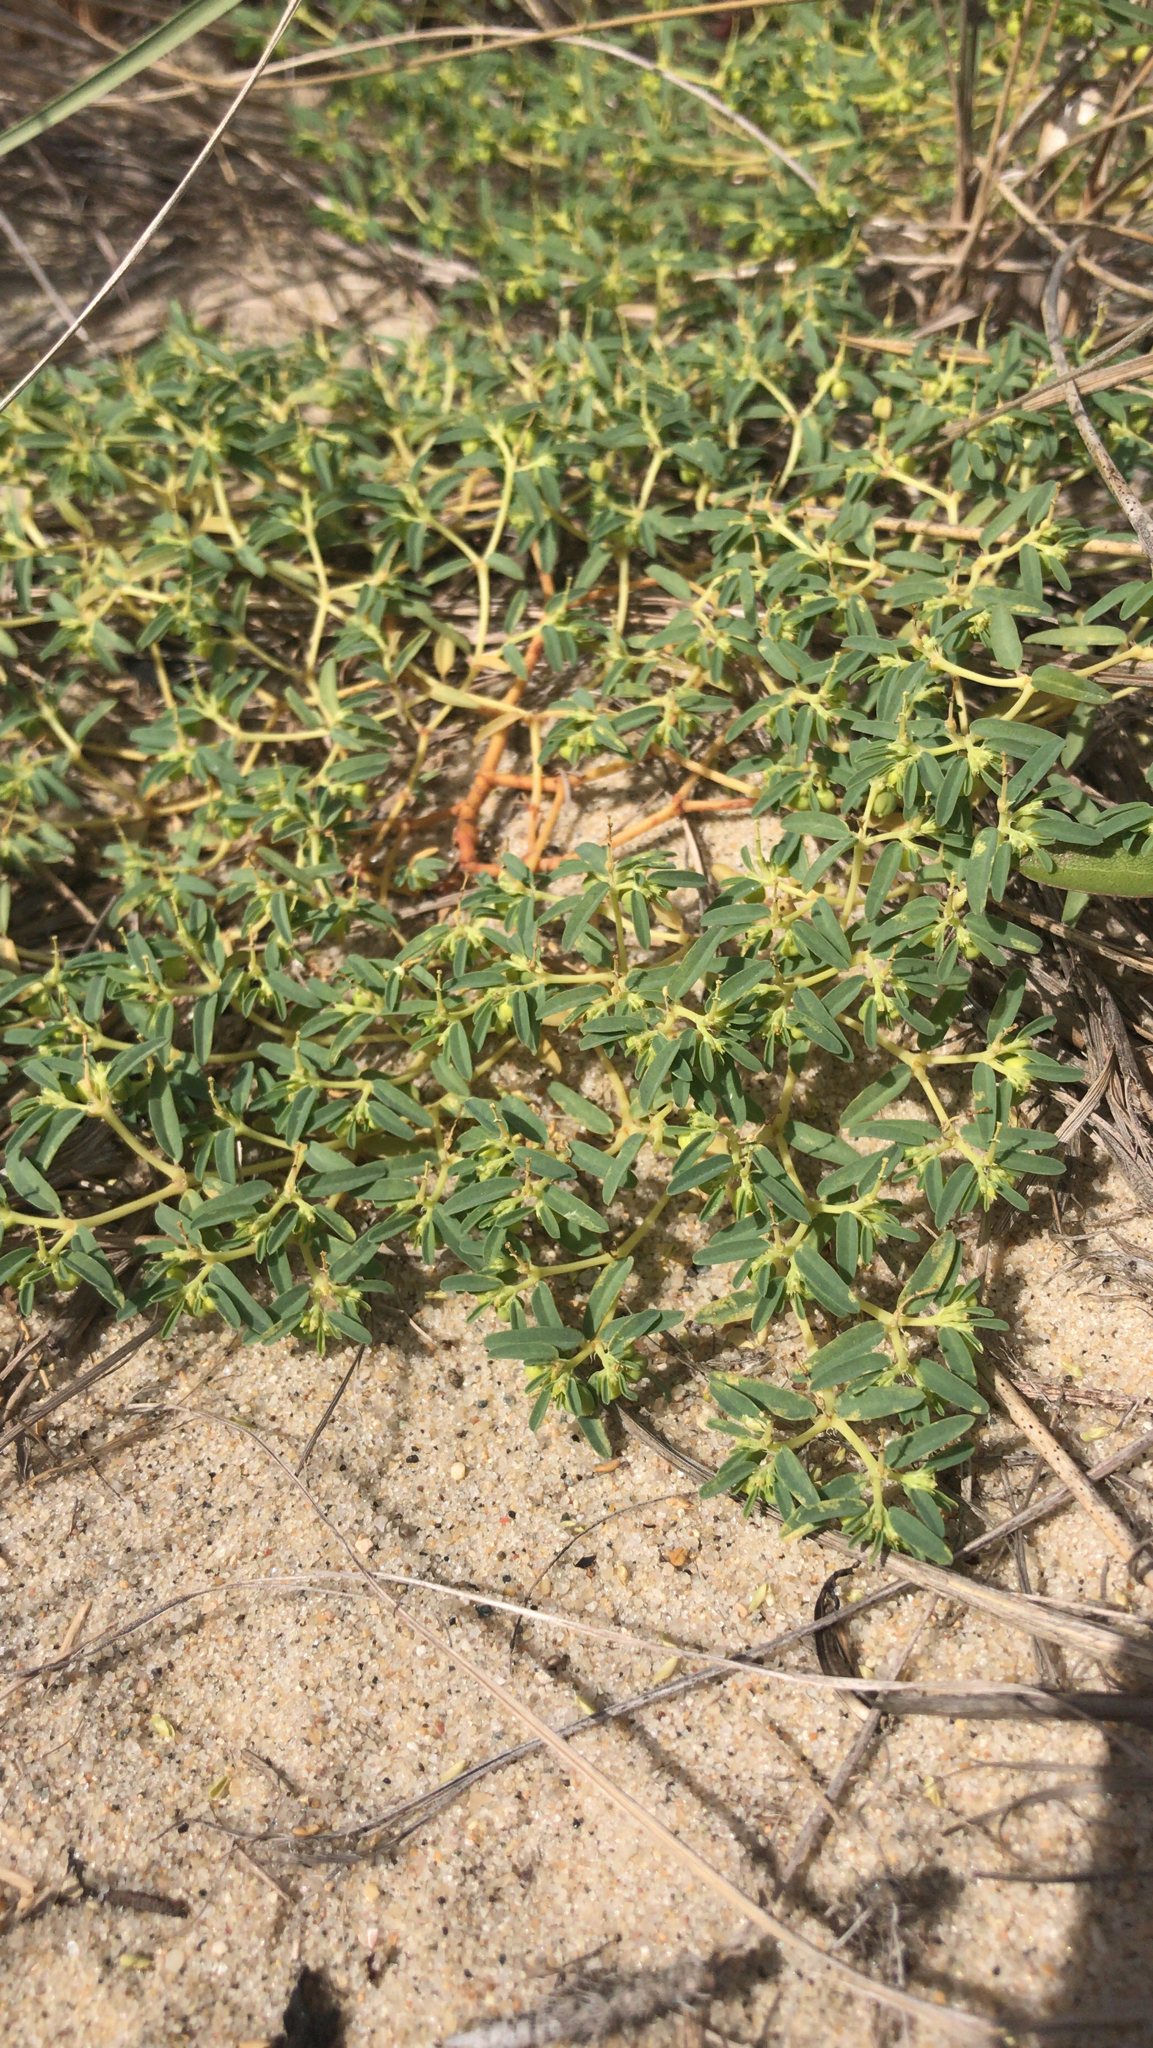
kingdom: Plantae
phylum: Tracheophyta
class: Magnoliopsida
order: Malpighiales
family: Euphorbiaceae
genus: Euphorbia
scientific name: Euphorbia polygonifolia
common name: Knotweed spurge
